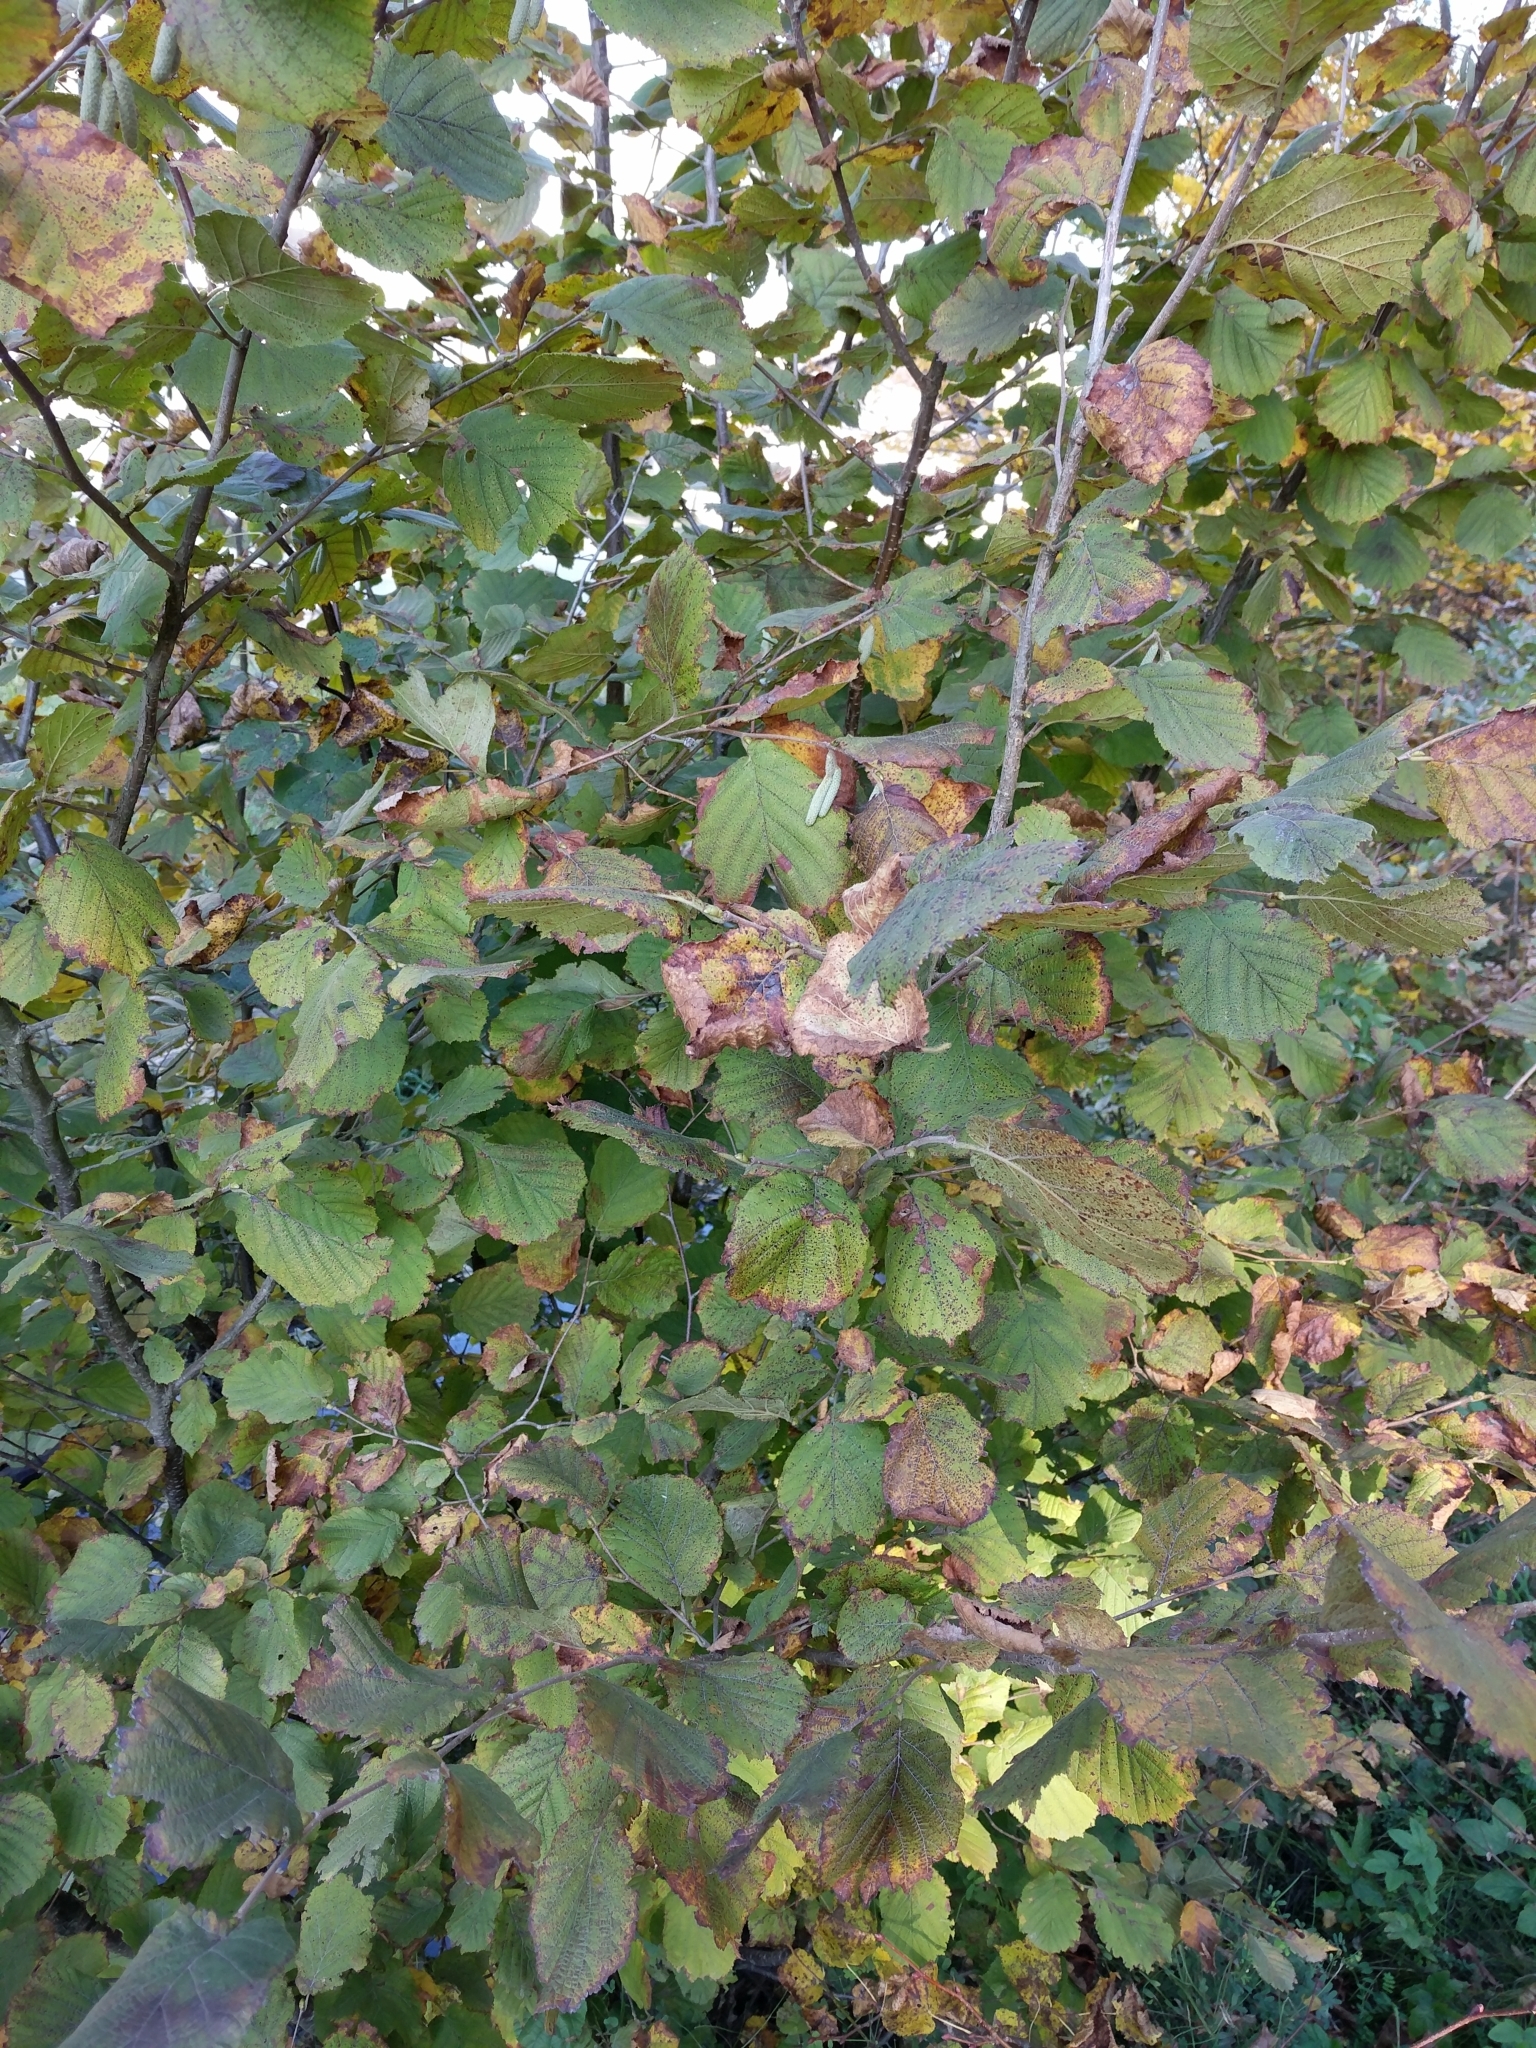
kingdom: Plantae
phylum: Tracheophyta
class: Magnoliopsida
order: Fagales
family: Betulaceae
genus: Corylus
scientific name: Corylus avellana
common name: European hazel
